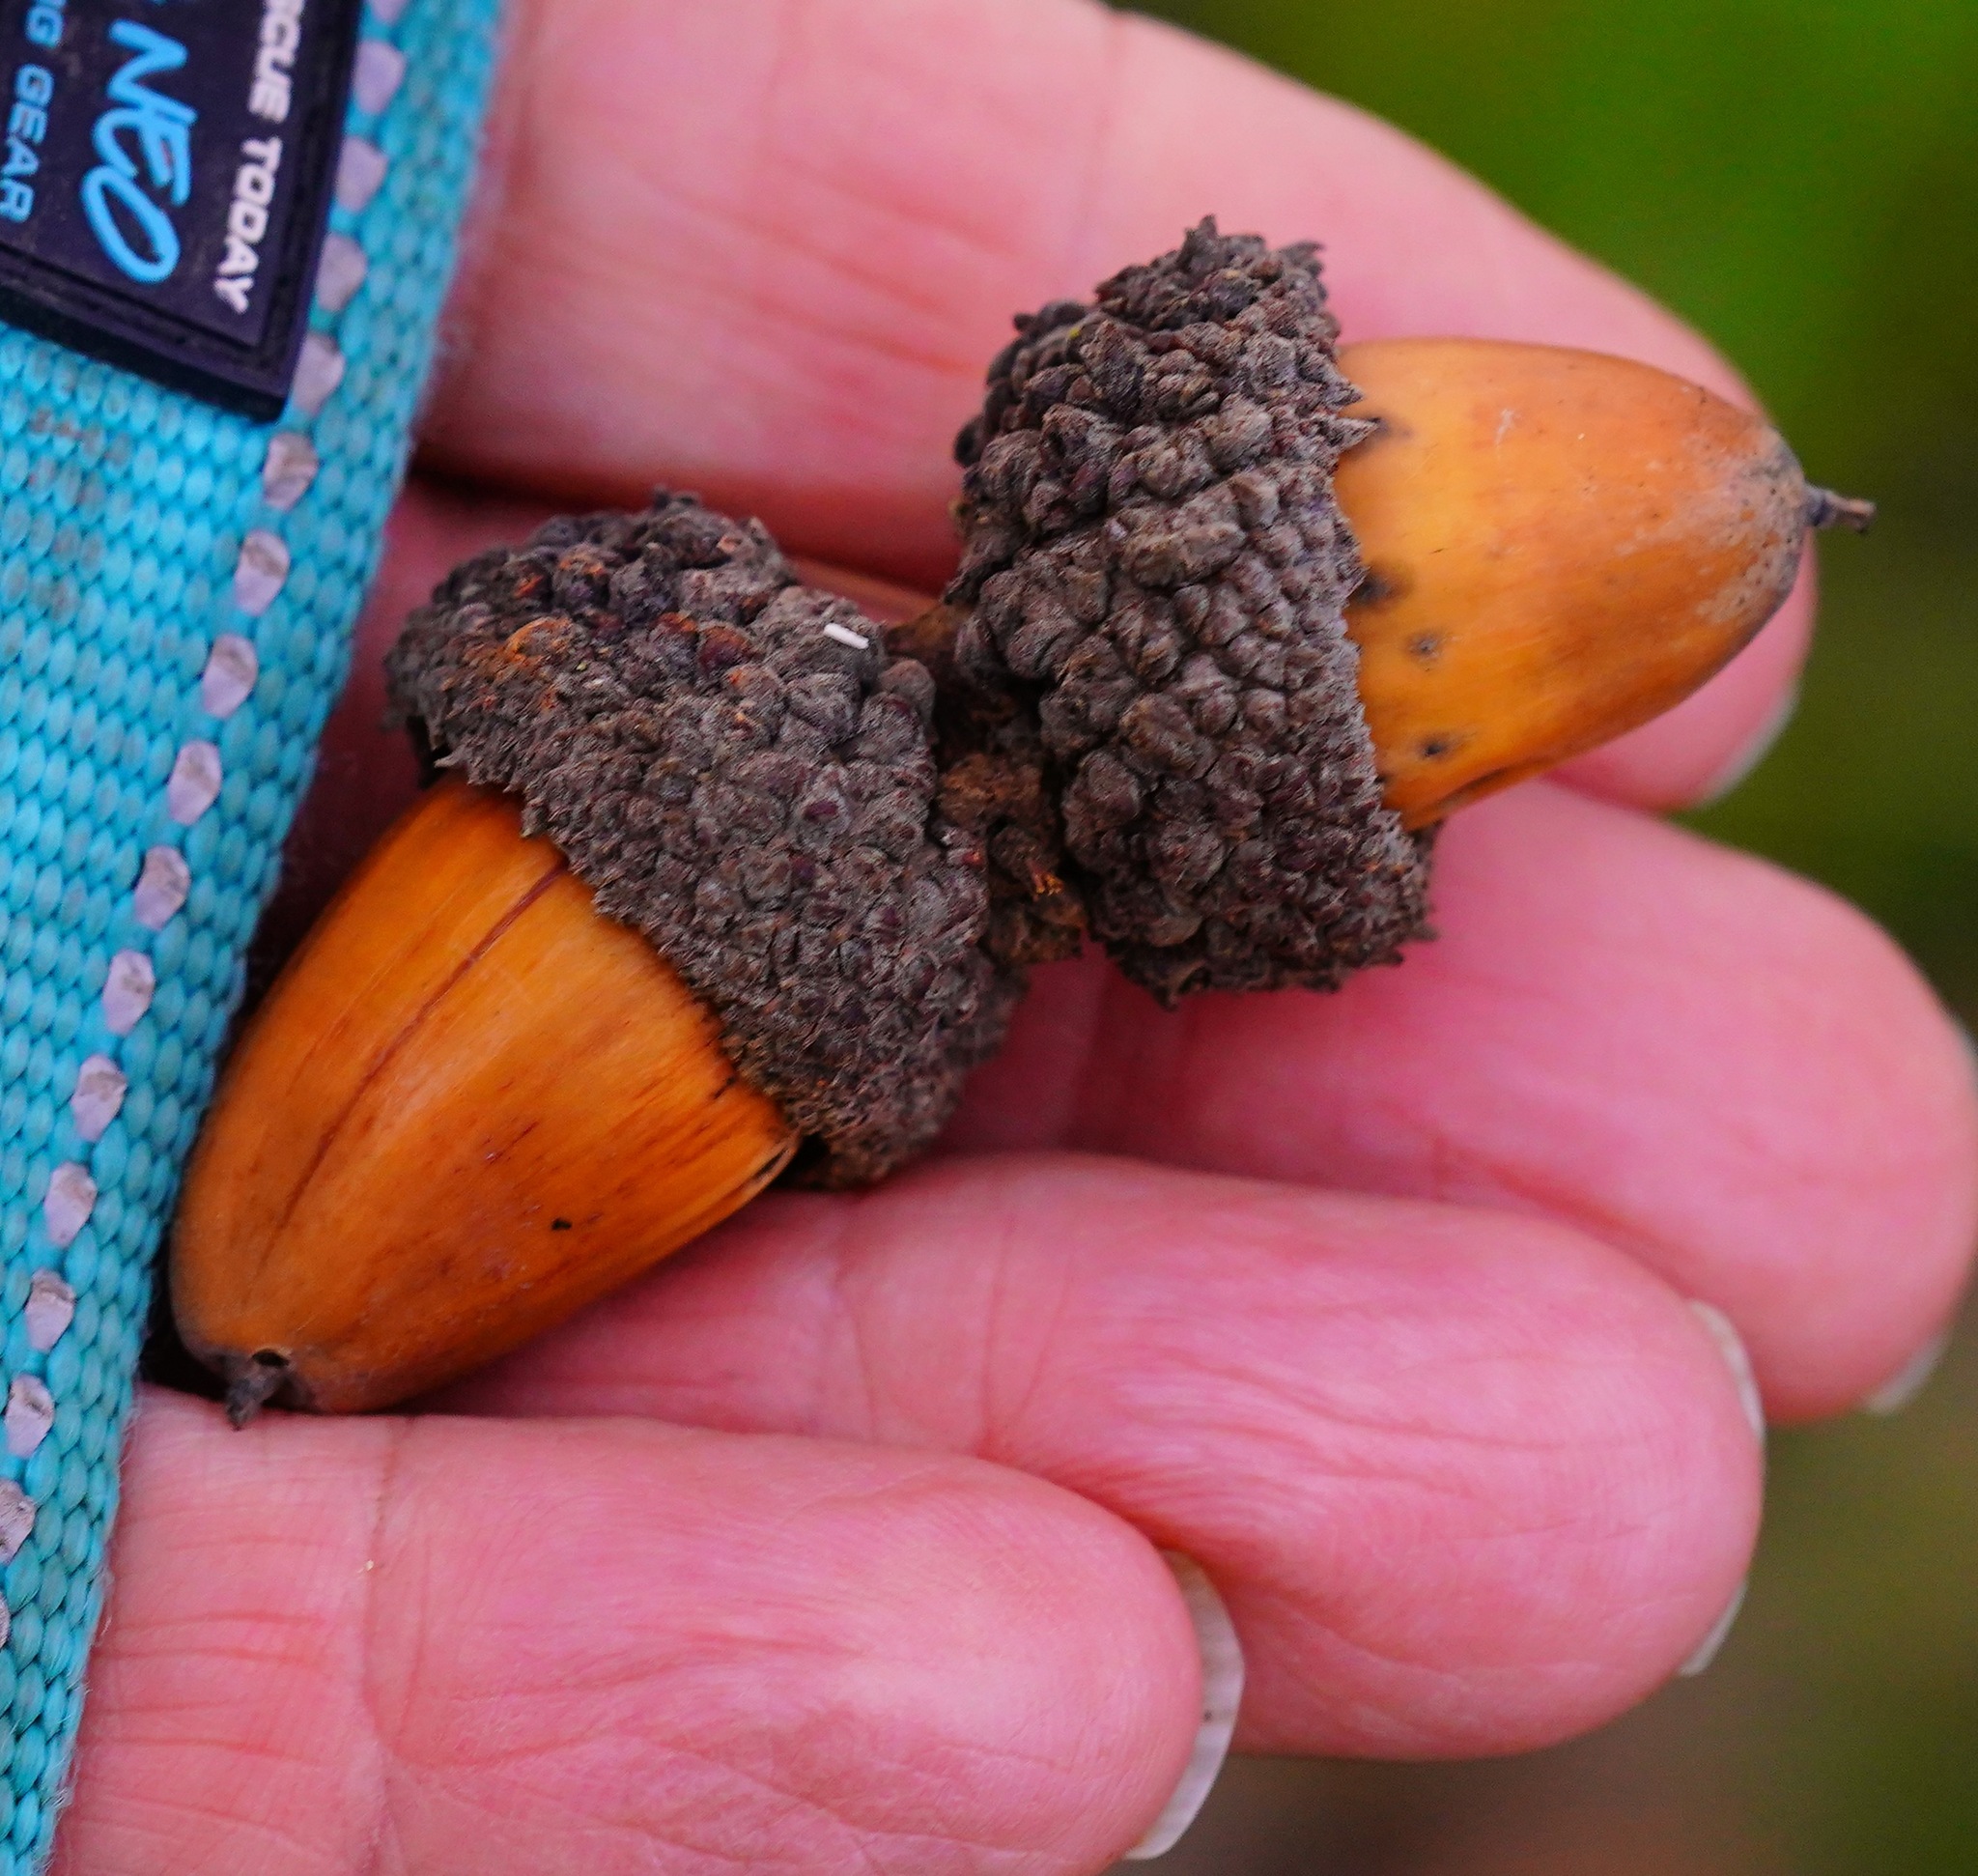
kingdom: Plantae
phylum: Tracheophyta
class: Magnoliopsida
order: Fagales
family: Fagaceae
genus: Quercus
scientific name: Quercus lobata
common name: Valley oak
